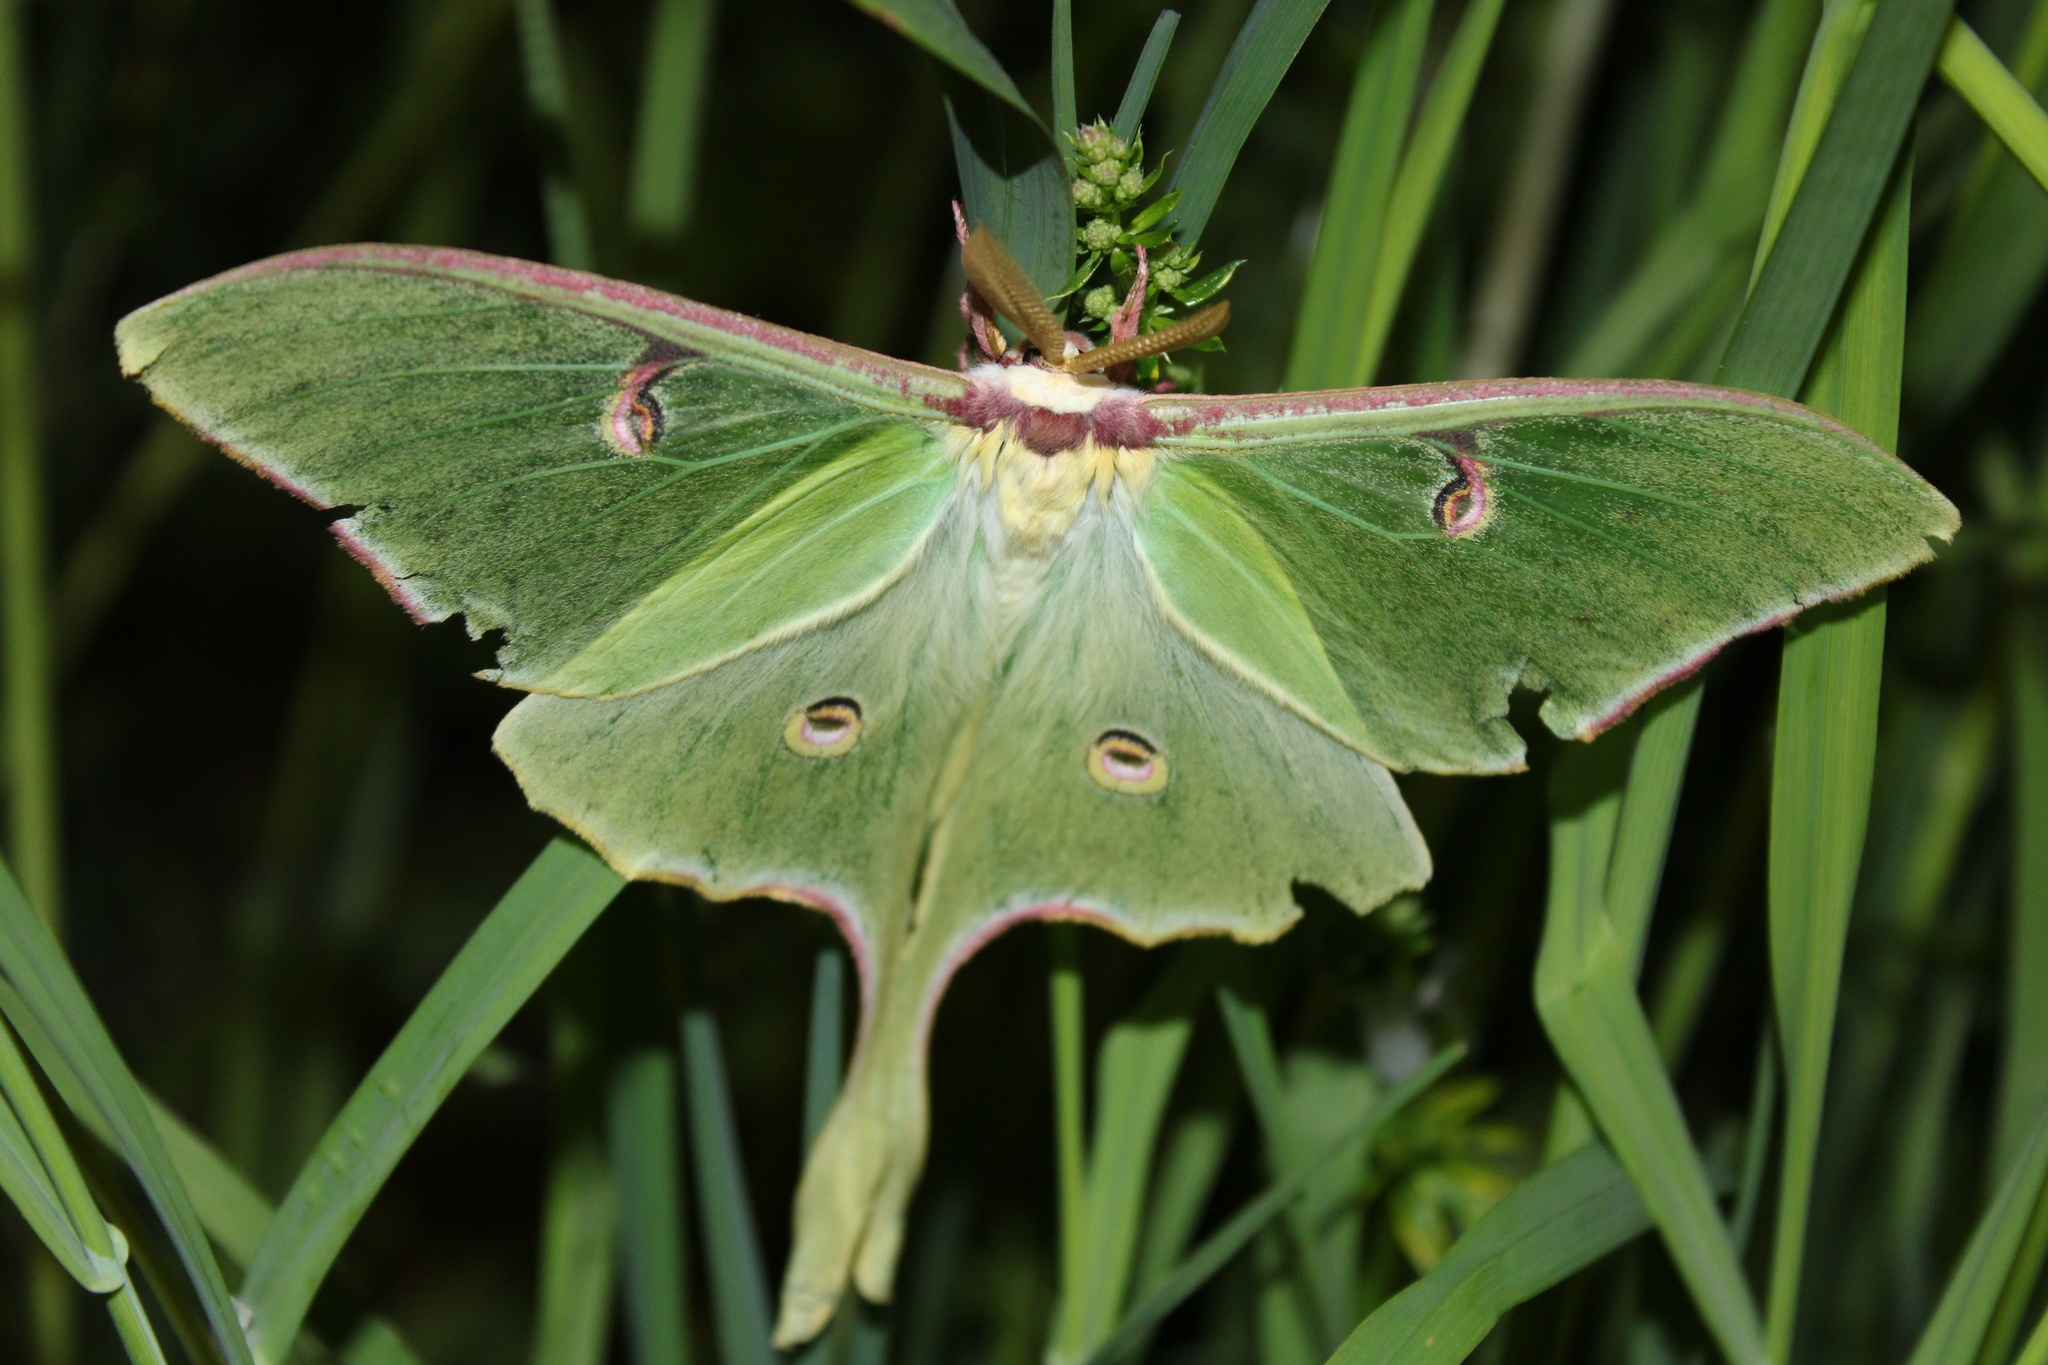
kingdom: Animalia
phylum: Arthropoda
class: Insecta
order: Lepidoptera
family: Saturniidae
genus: Actias
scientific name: Actias luna
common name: Luna moth
